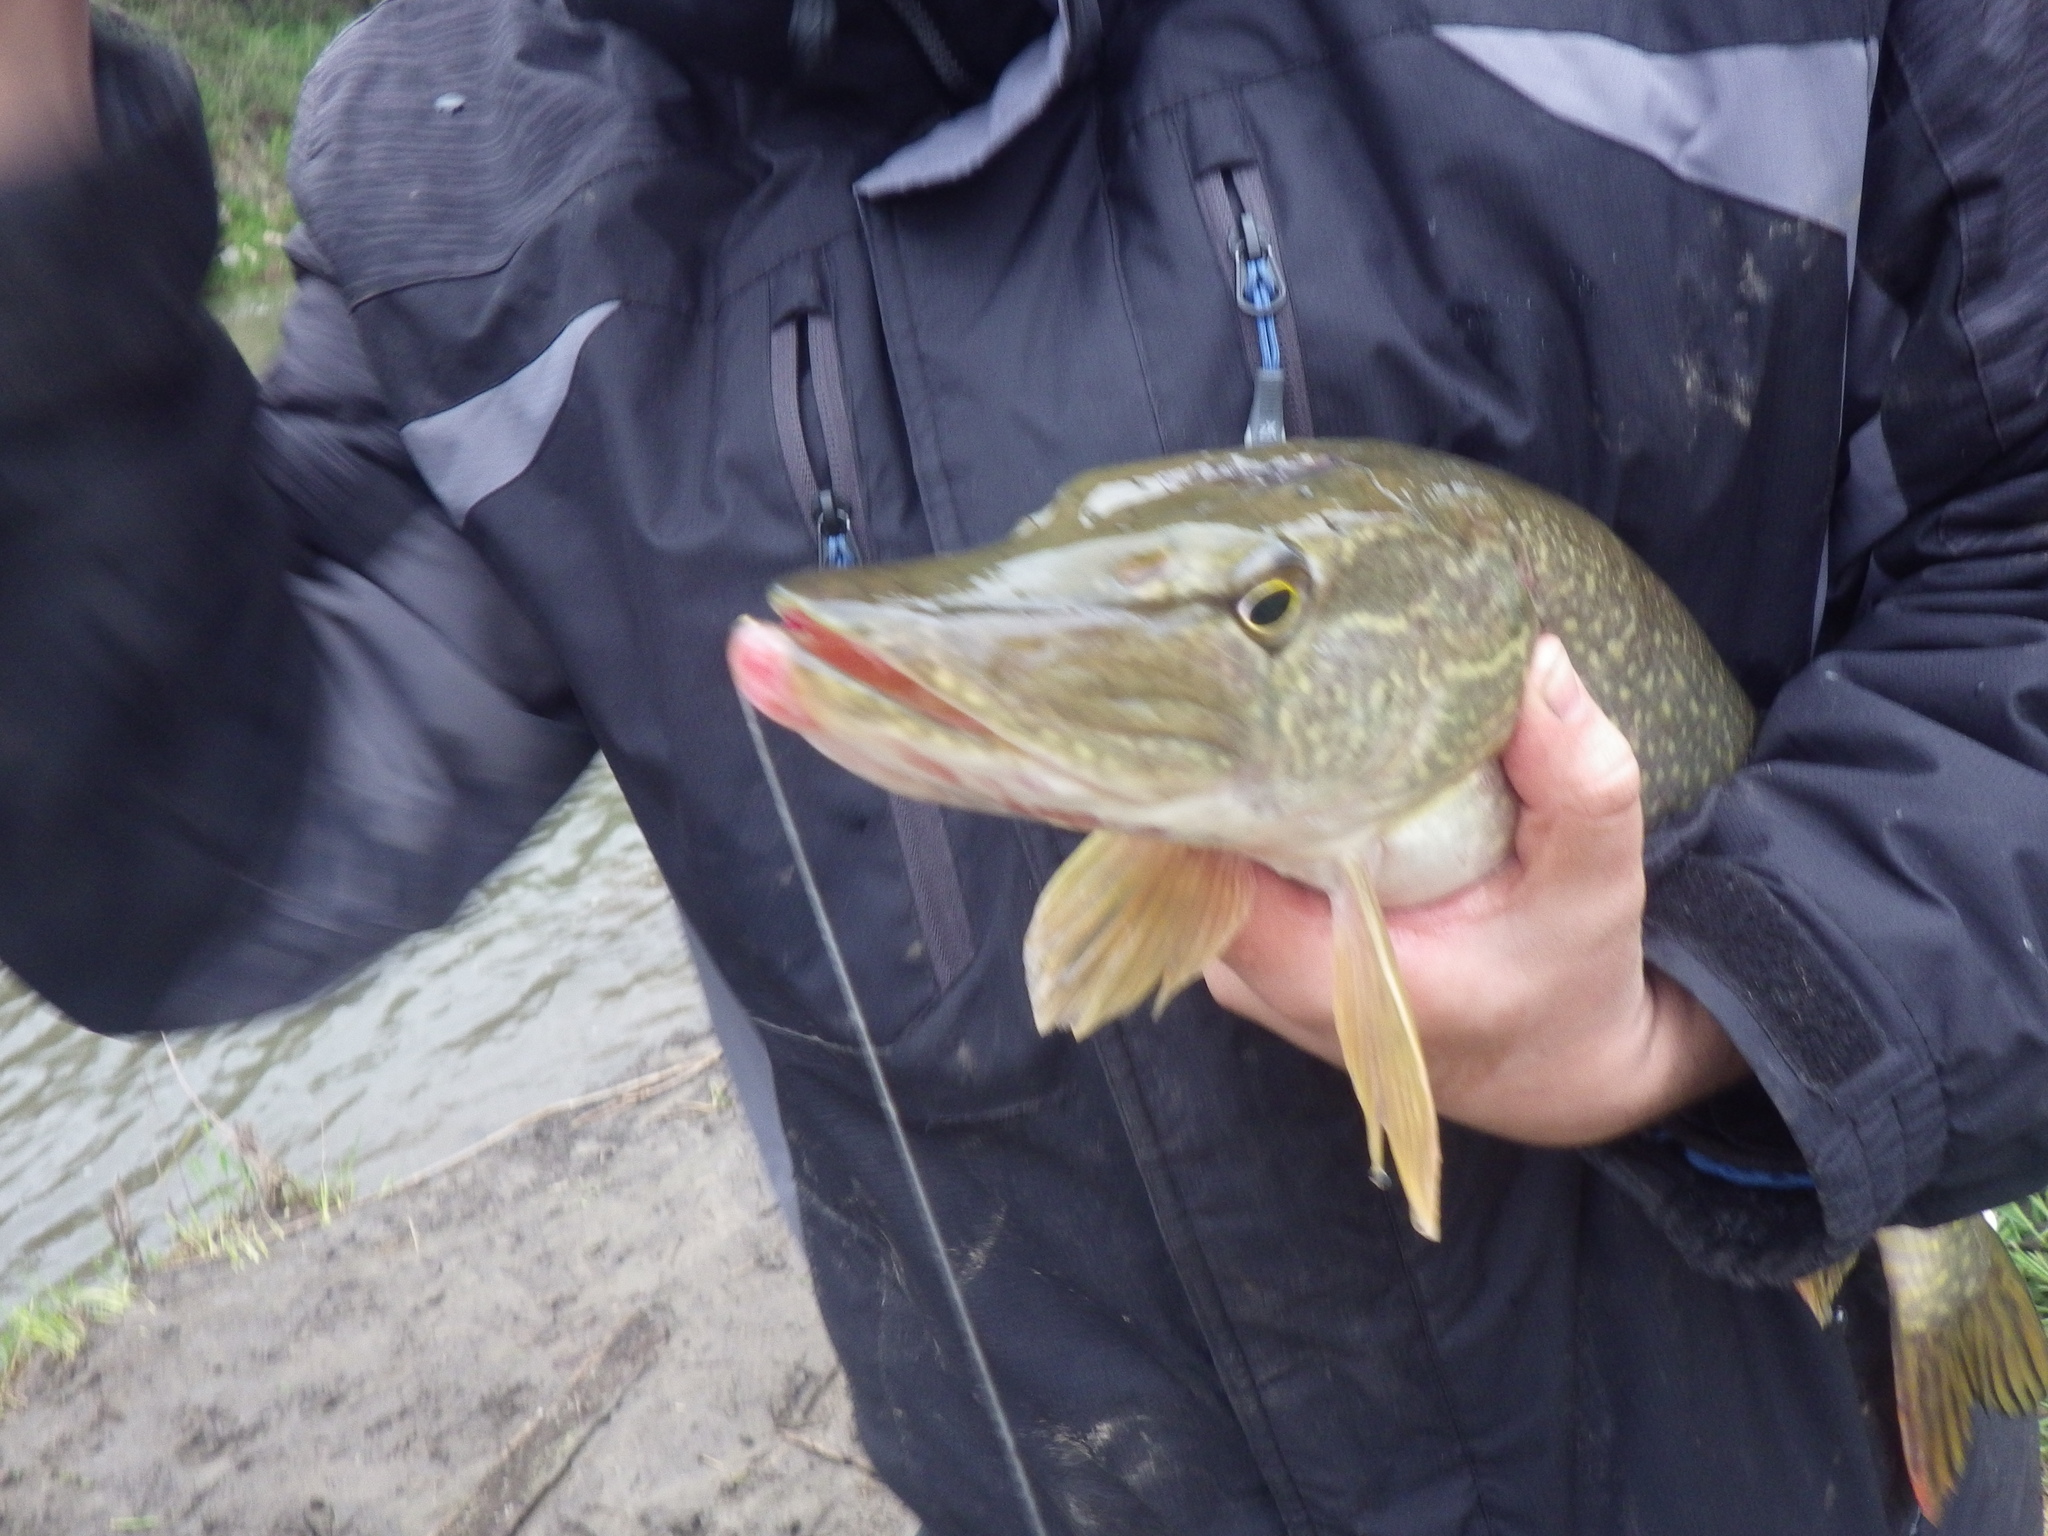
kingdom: Animalia
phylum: Chordata
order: Esociformes
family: Esocidae
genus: Esox
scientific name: Esox lucius
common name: Northern pike
